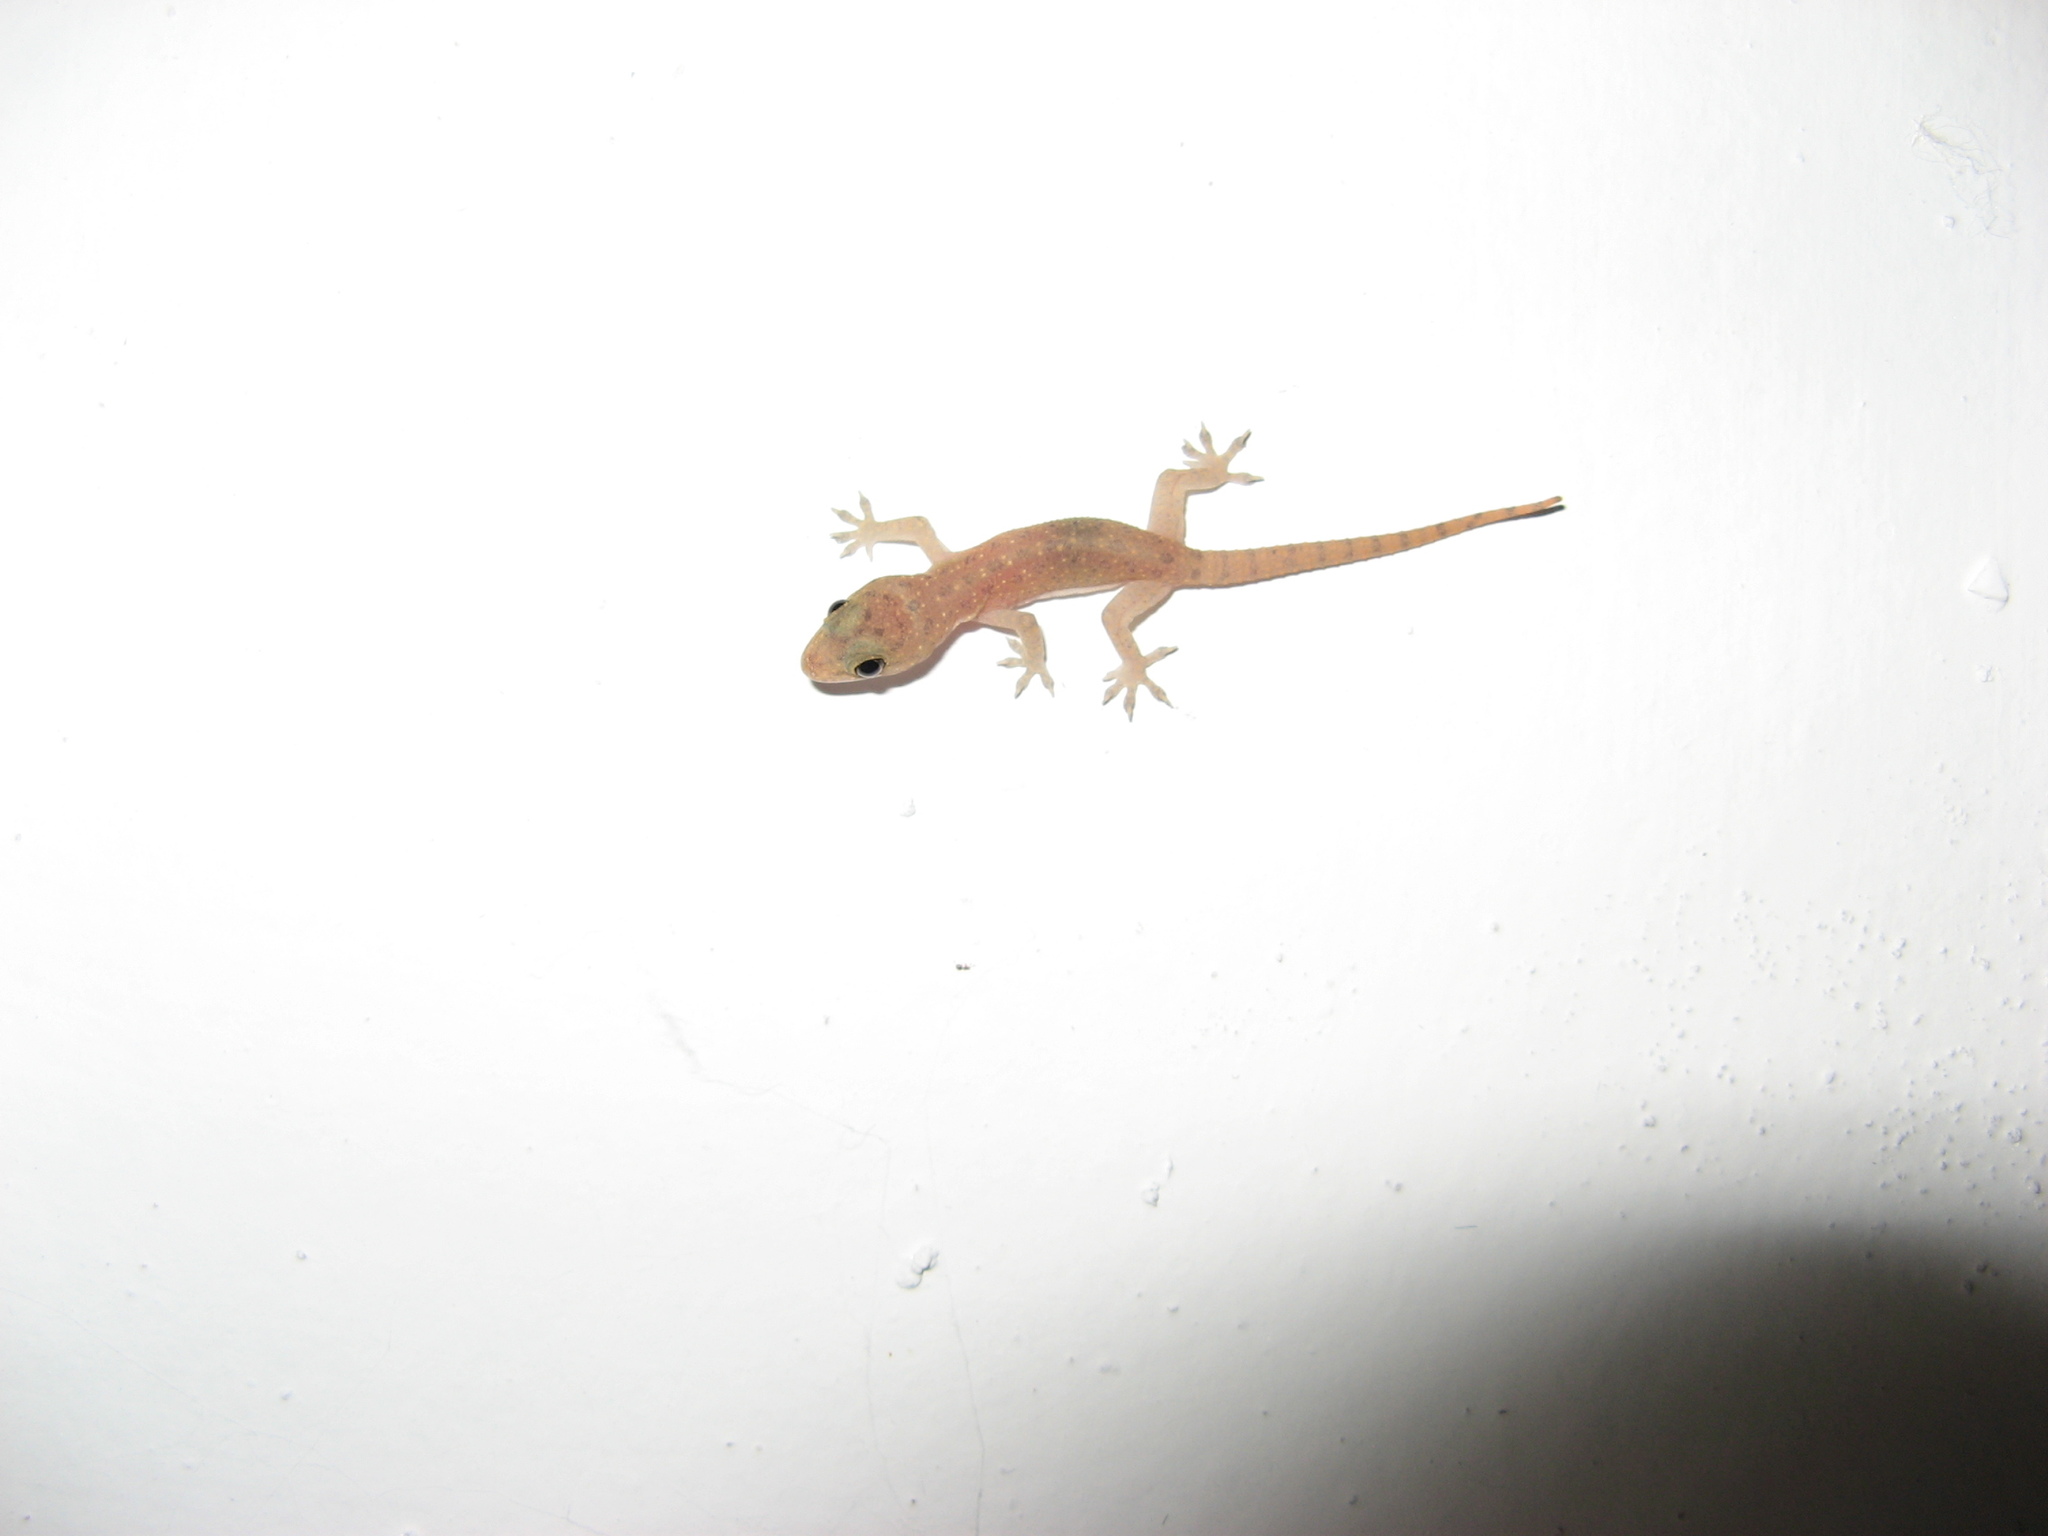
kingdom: Animalia
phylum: Chordata
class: Squamata
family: Gekkonidae
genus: Hemidactylus
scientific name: Hemidactylus parvimaculatus
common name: Spotted house gecko
